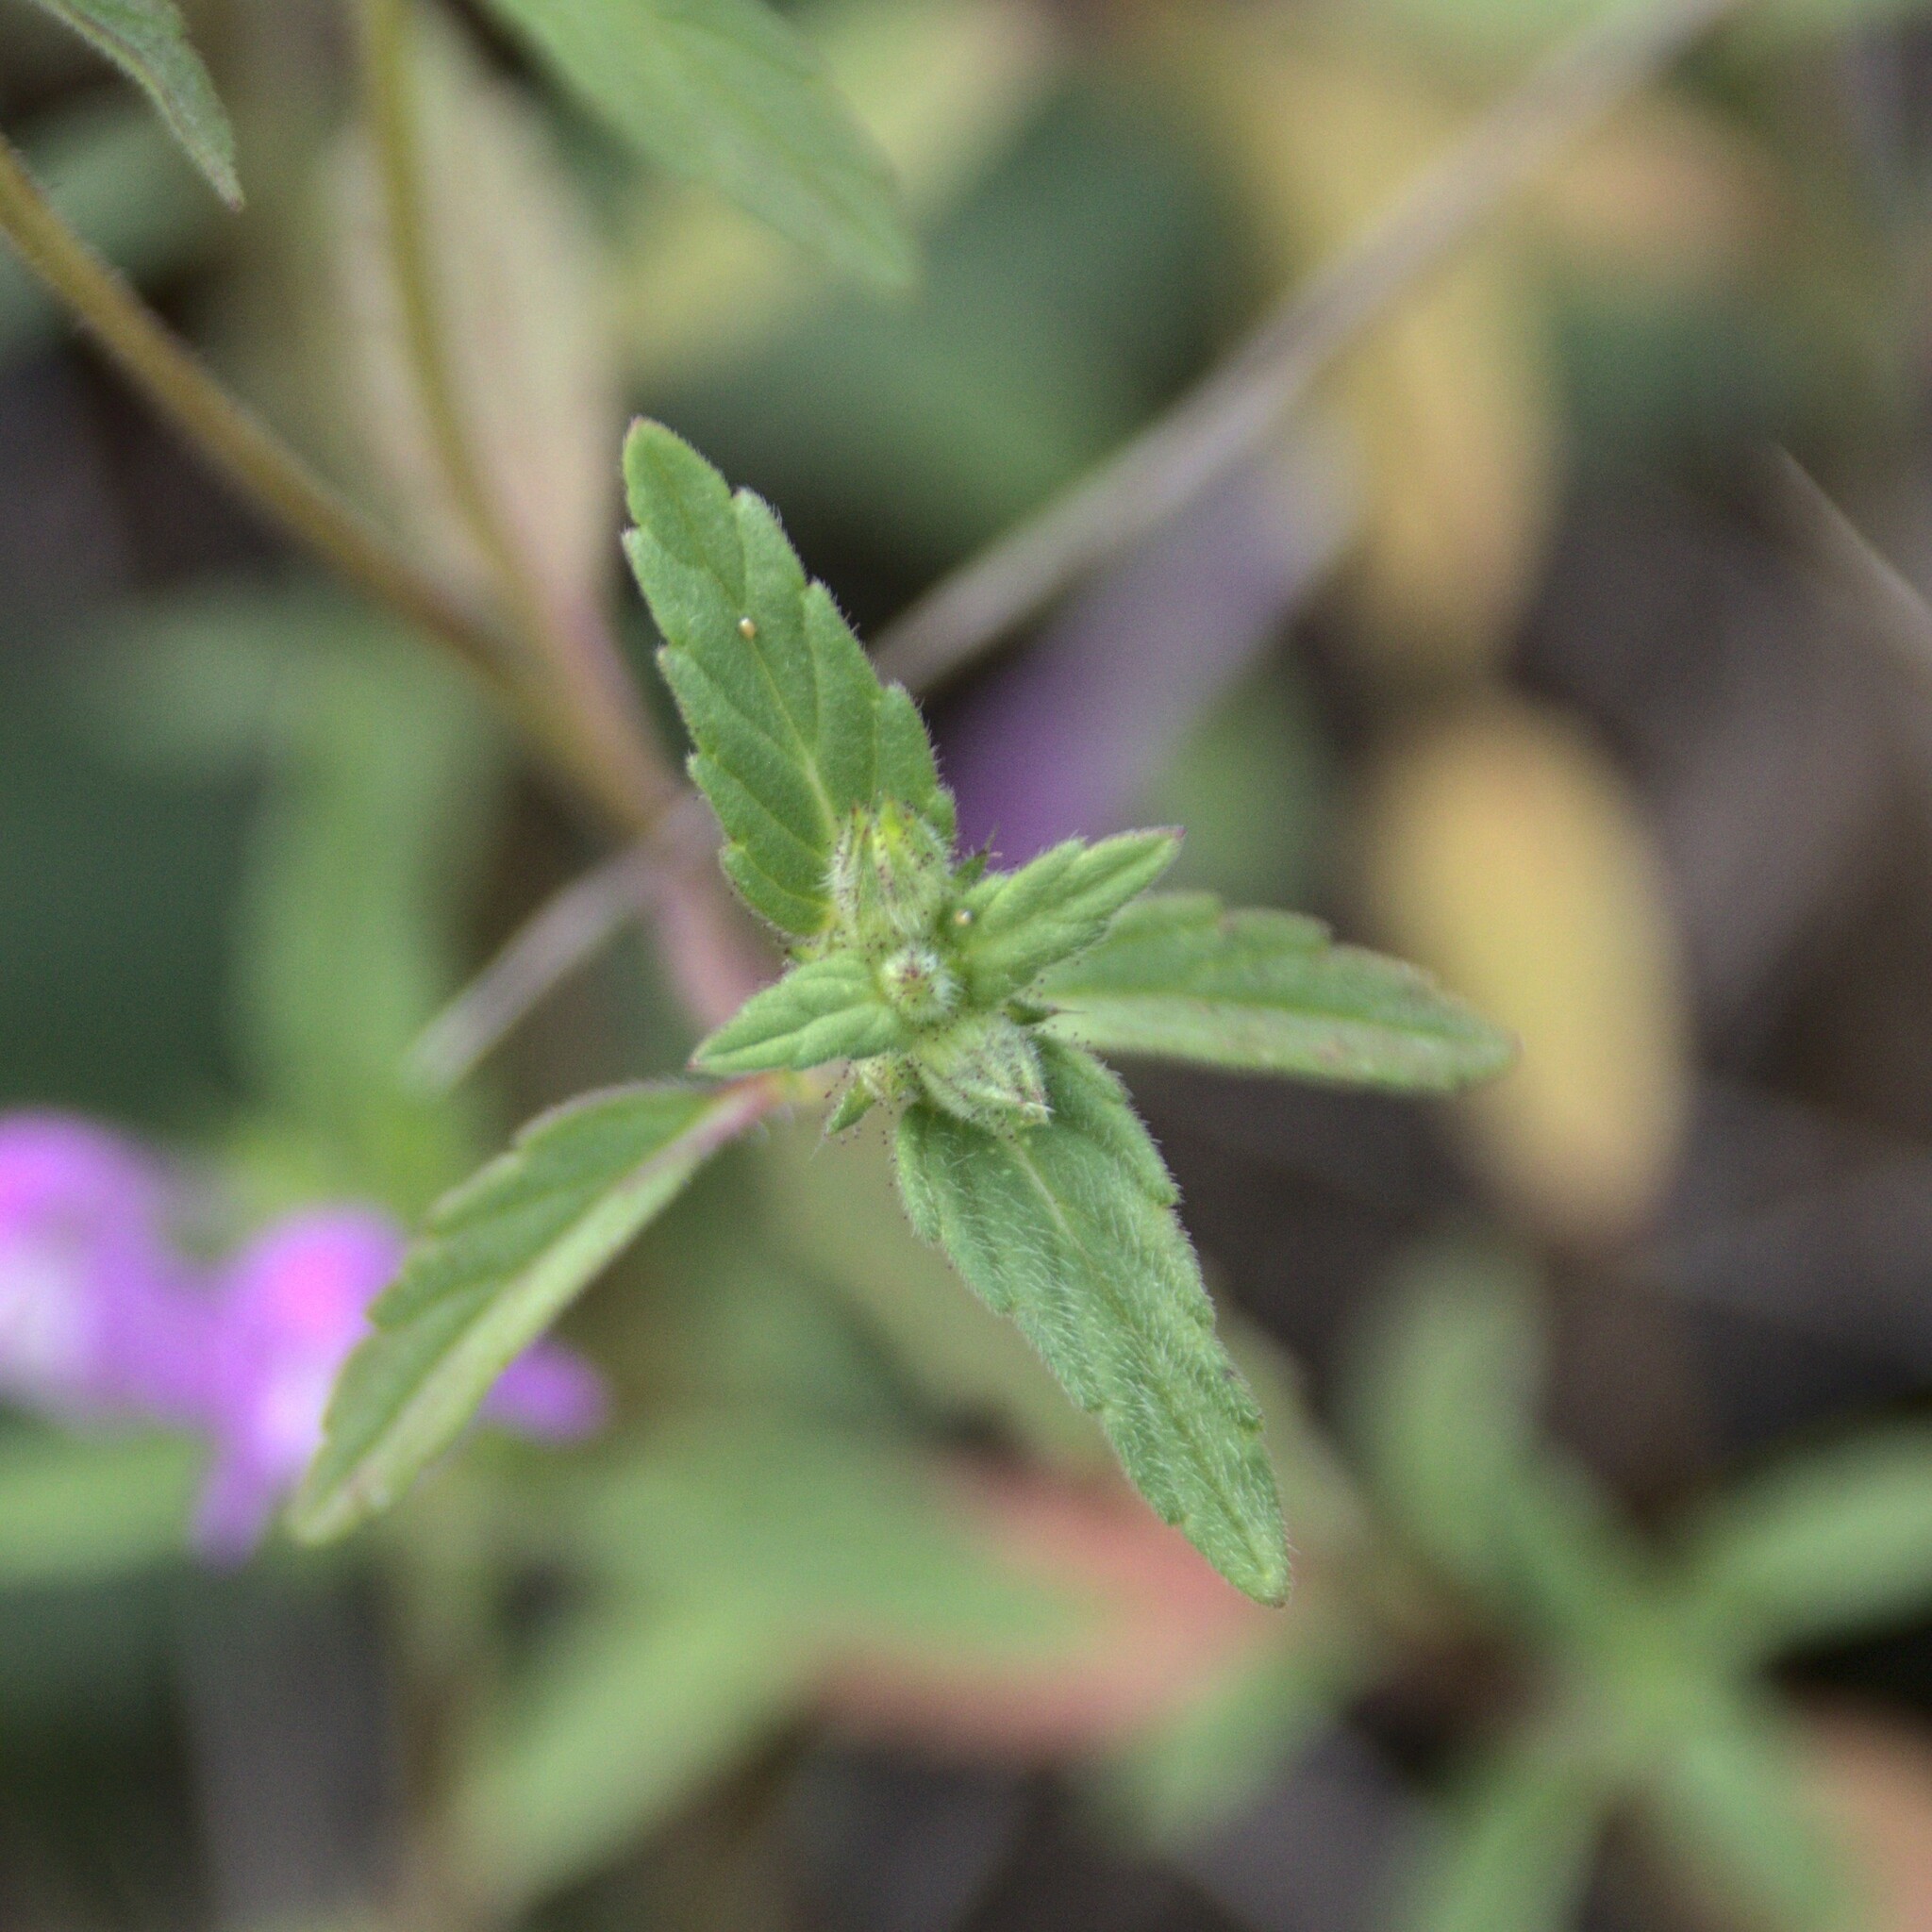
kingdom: Plantae
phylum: Tracheophyta
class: Magnoliopsida
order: Lamiales
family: Lamiaceae
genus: Galeopsis
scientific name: Galeopsis ladanum
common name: Broad-leaved hemp-nettle
